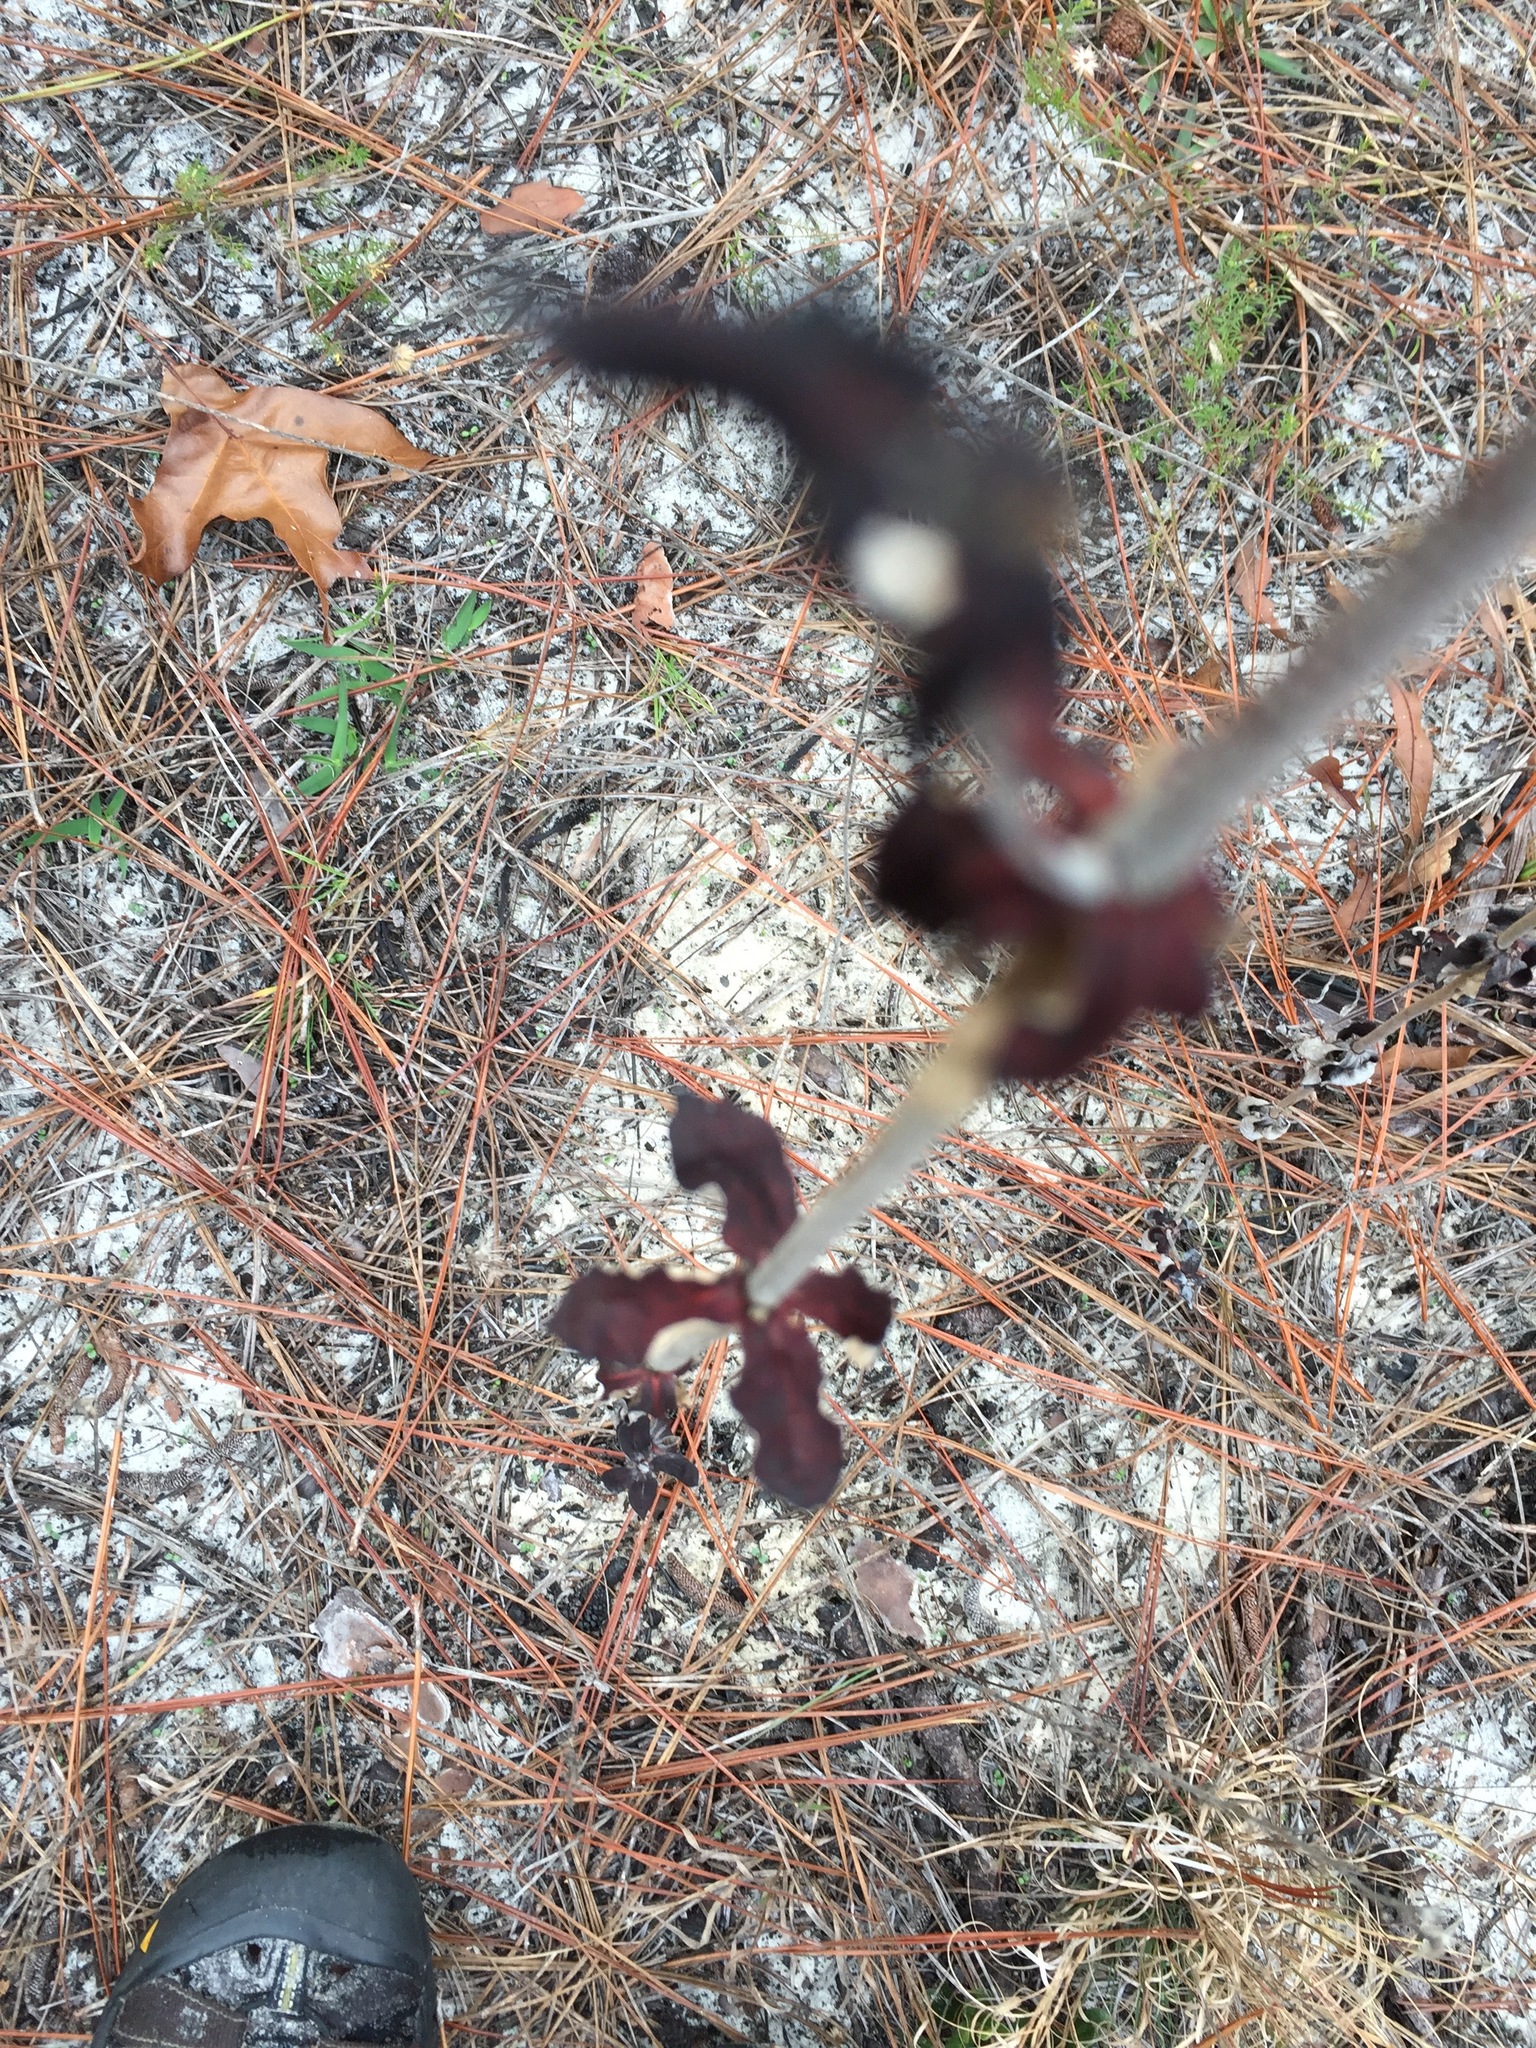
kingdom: Plantae
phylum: Tracheophyta
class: Magnoliopsida
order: Caryophyllales
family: Polygonaceae
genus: Eriogonum
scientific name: Eriogonum tomentosum
